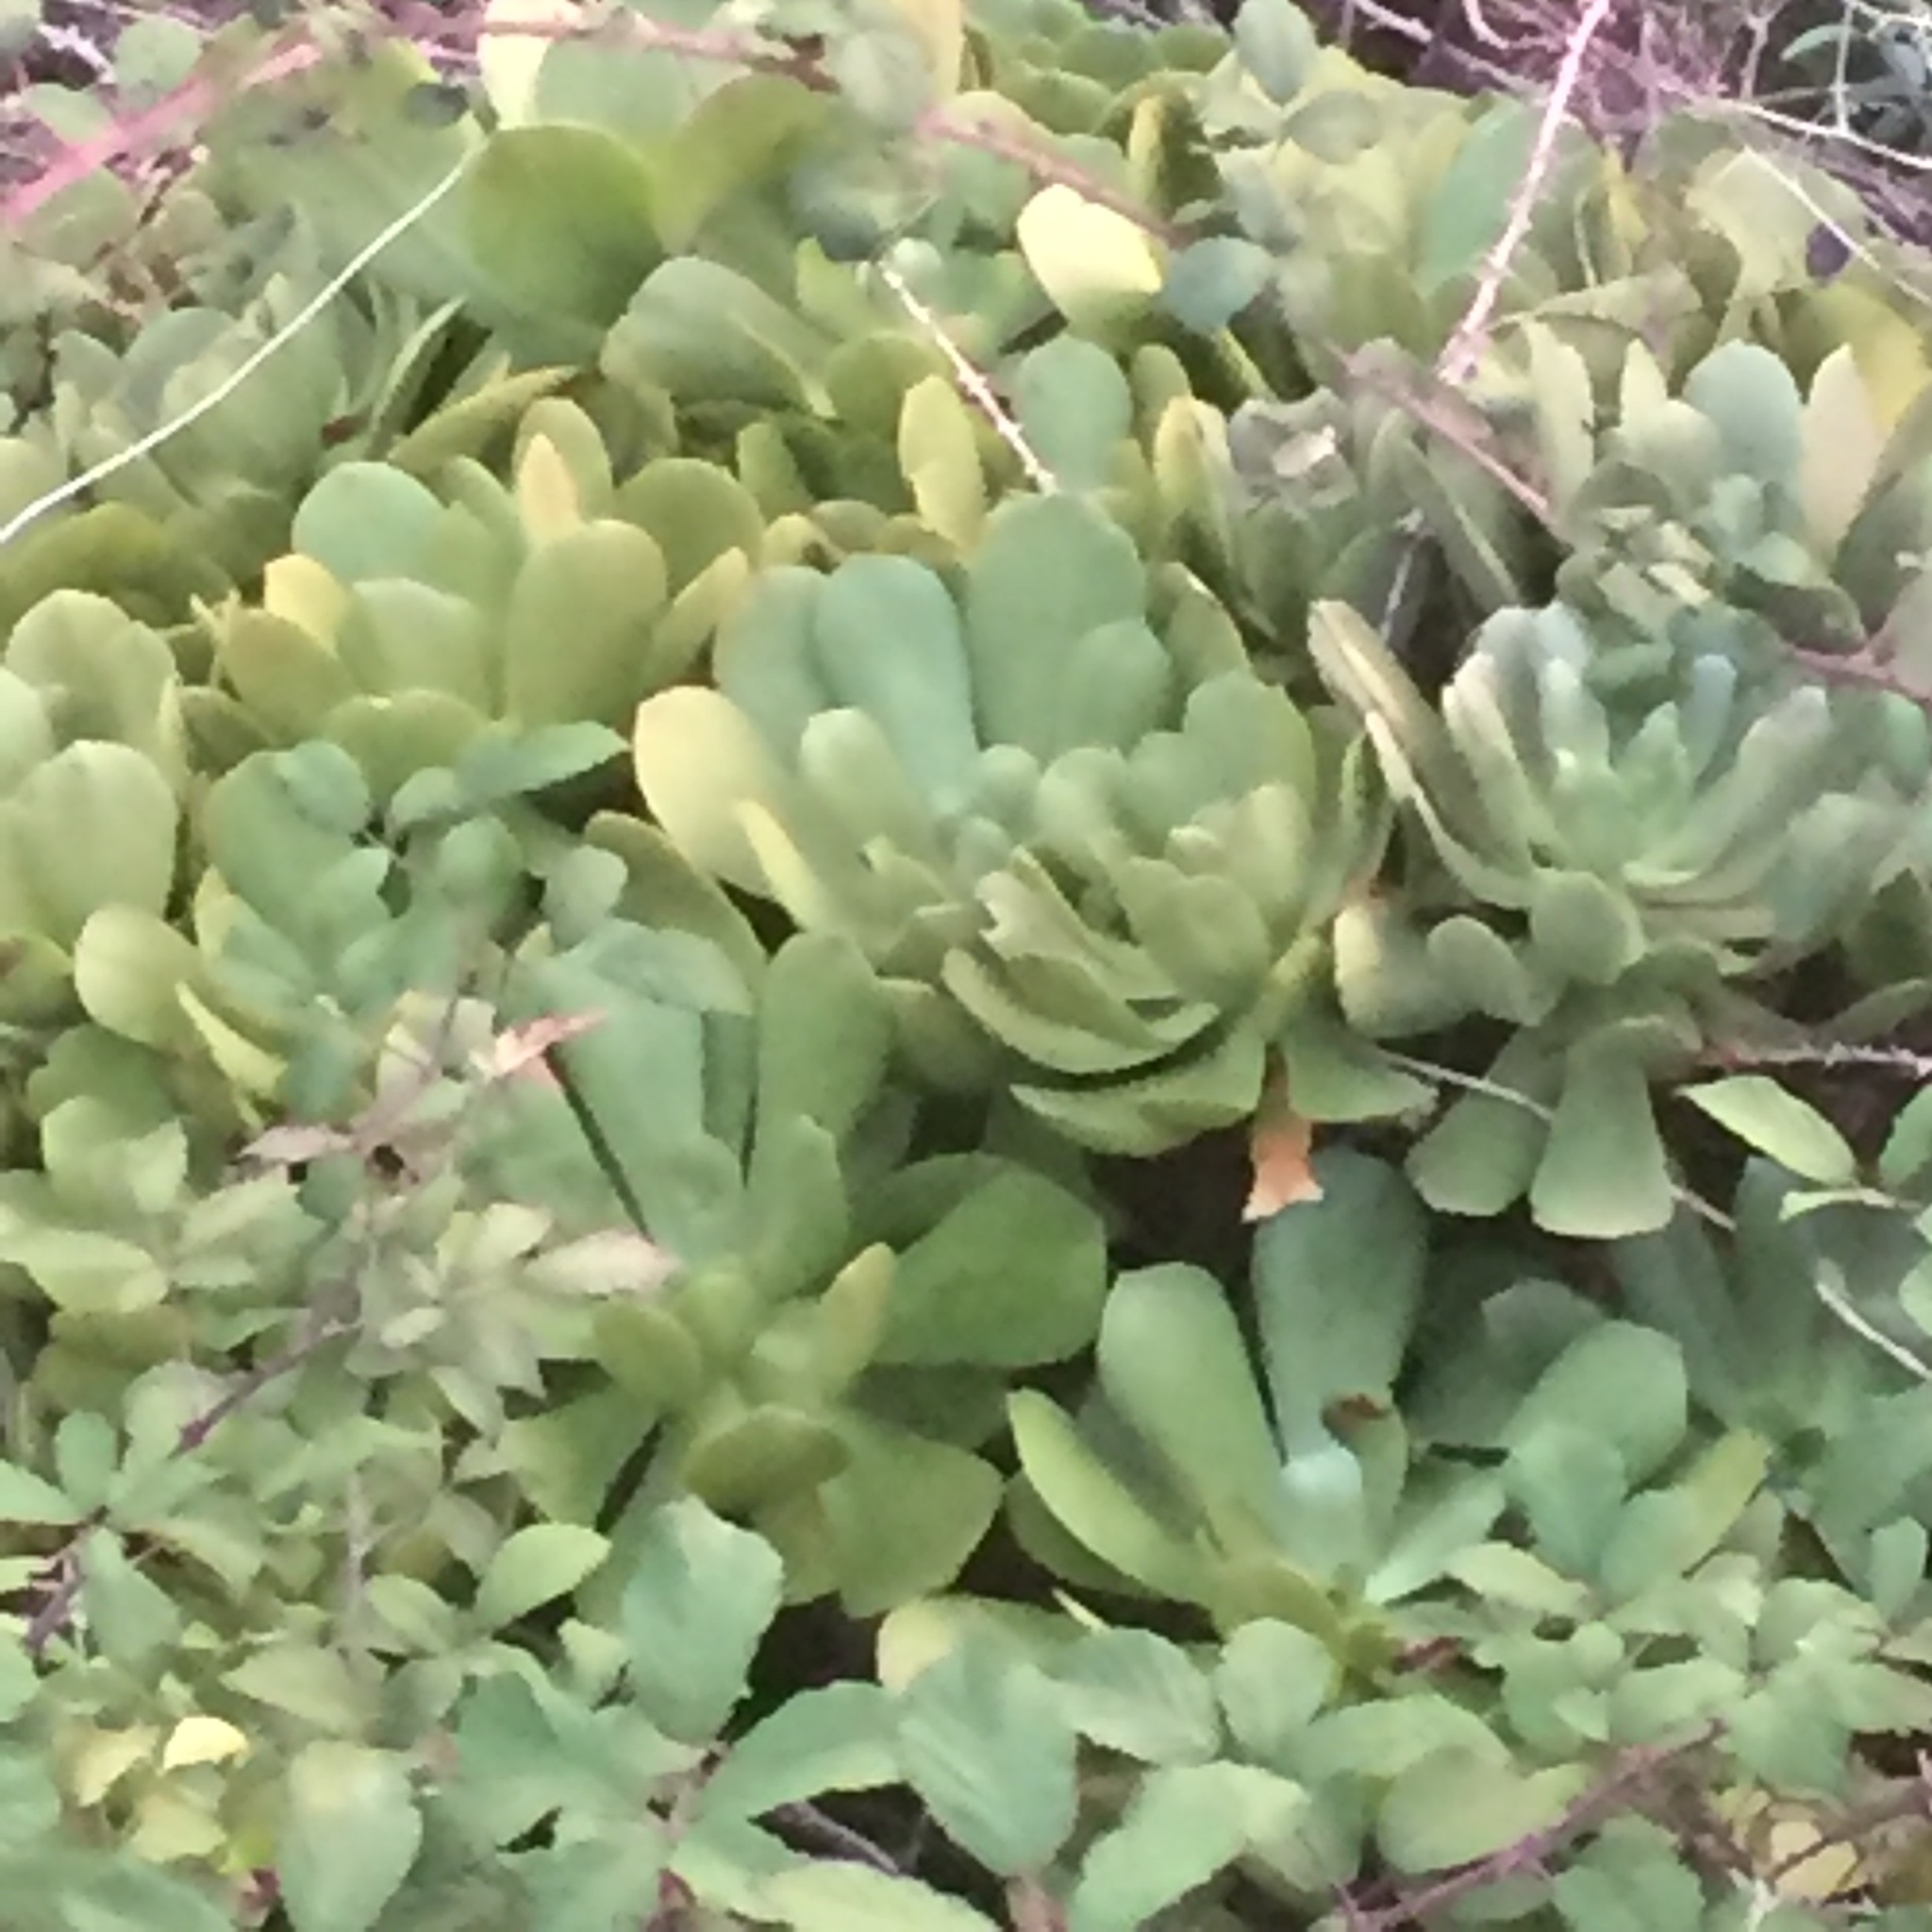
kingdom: Plantae
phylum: Tracheophyta
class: Magnoliopsida
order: Saxifragales
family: Crassulaceae
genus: Aeonium
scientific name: Aeonium glutinosum
